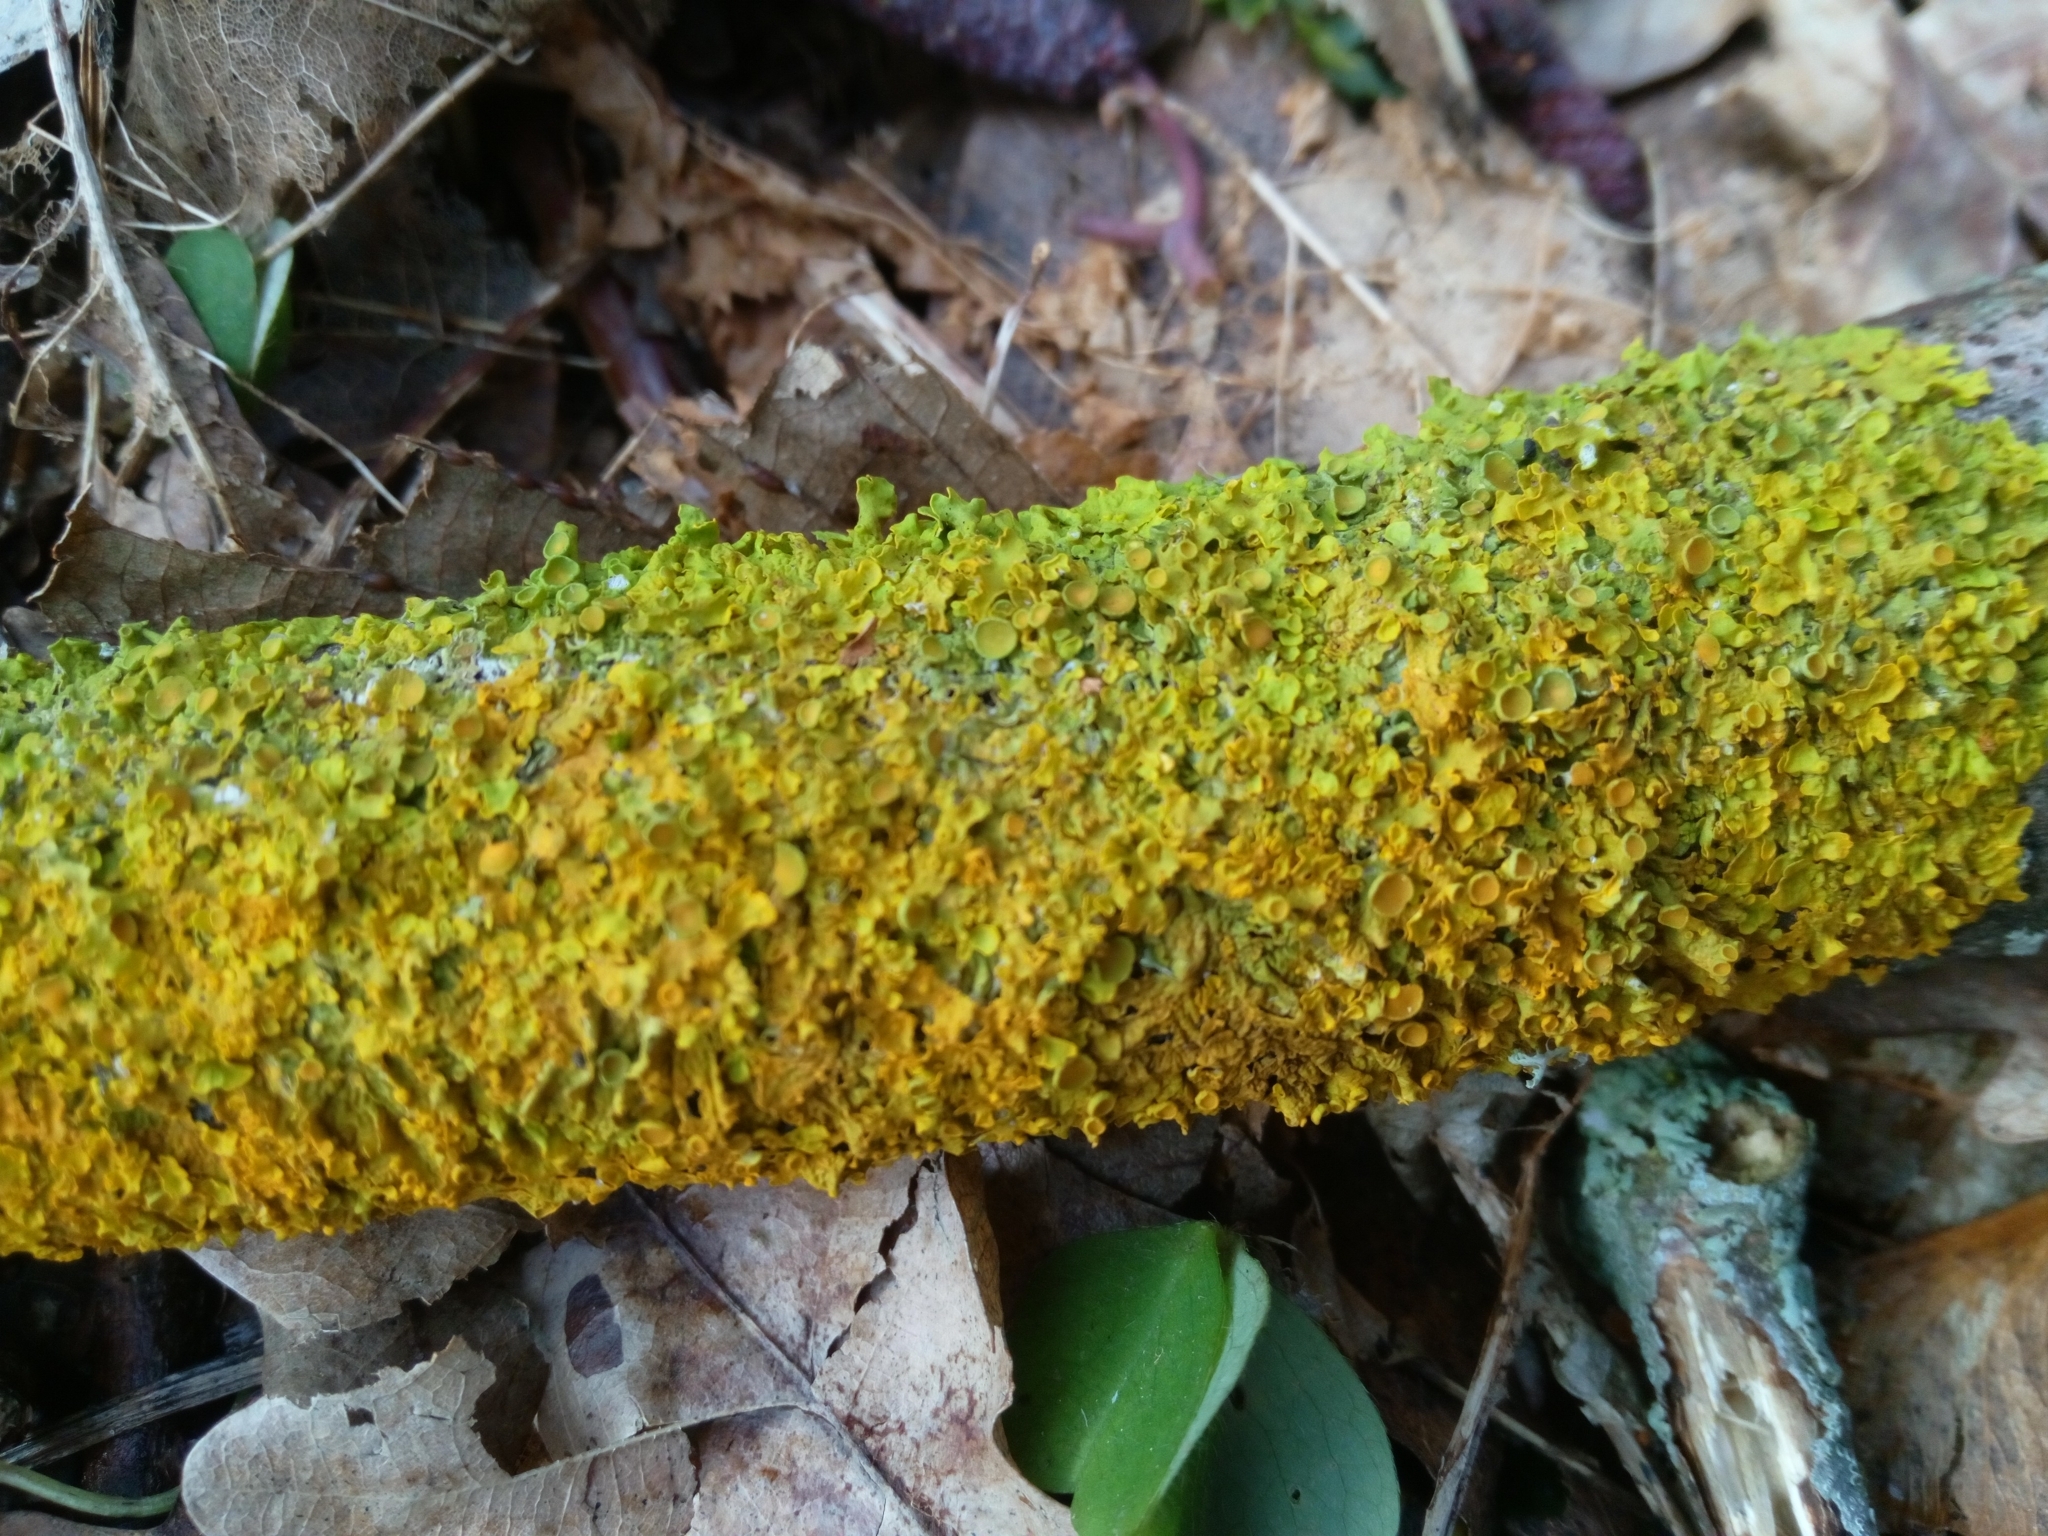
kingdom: Fungi
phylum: Ascomycota
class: Lecanoromycetes
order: Teloschistales
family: Teloschistaceae
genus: Xanthoria
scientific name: Xanthoria parietina
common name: Common orange lichen
